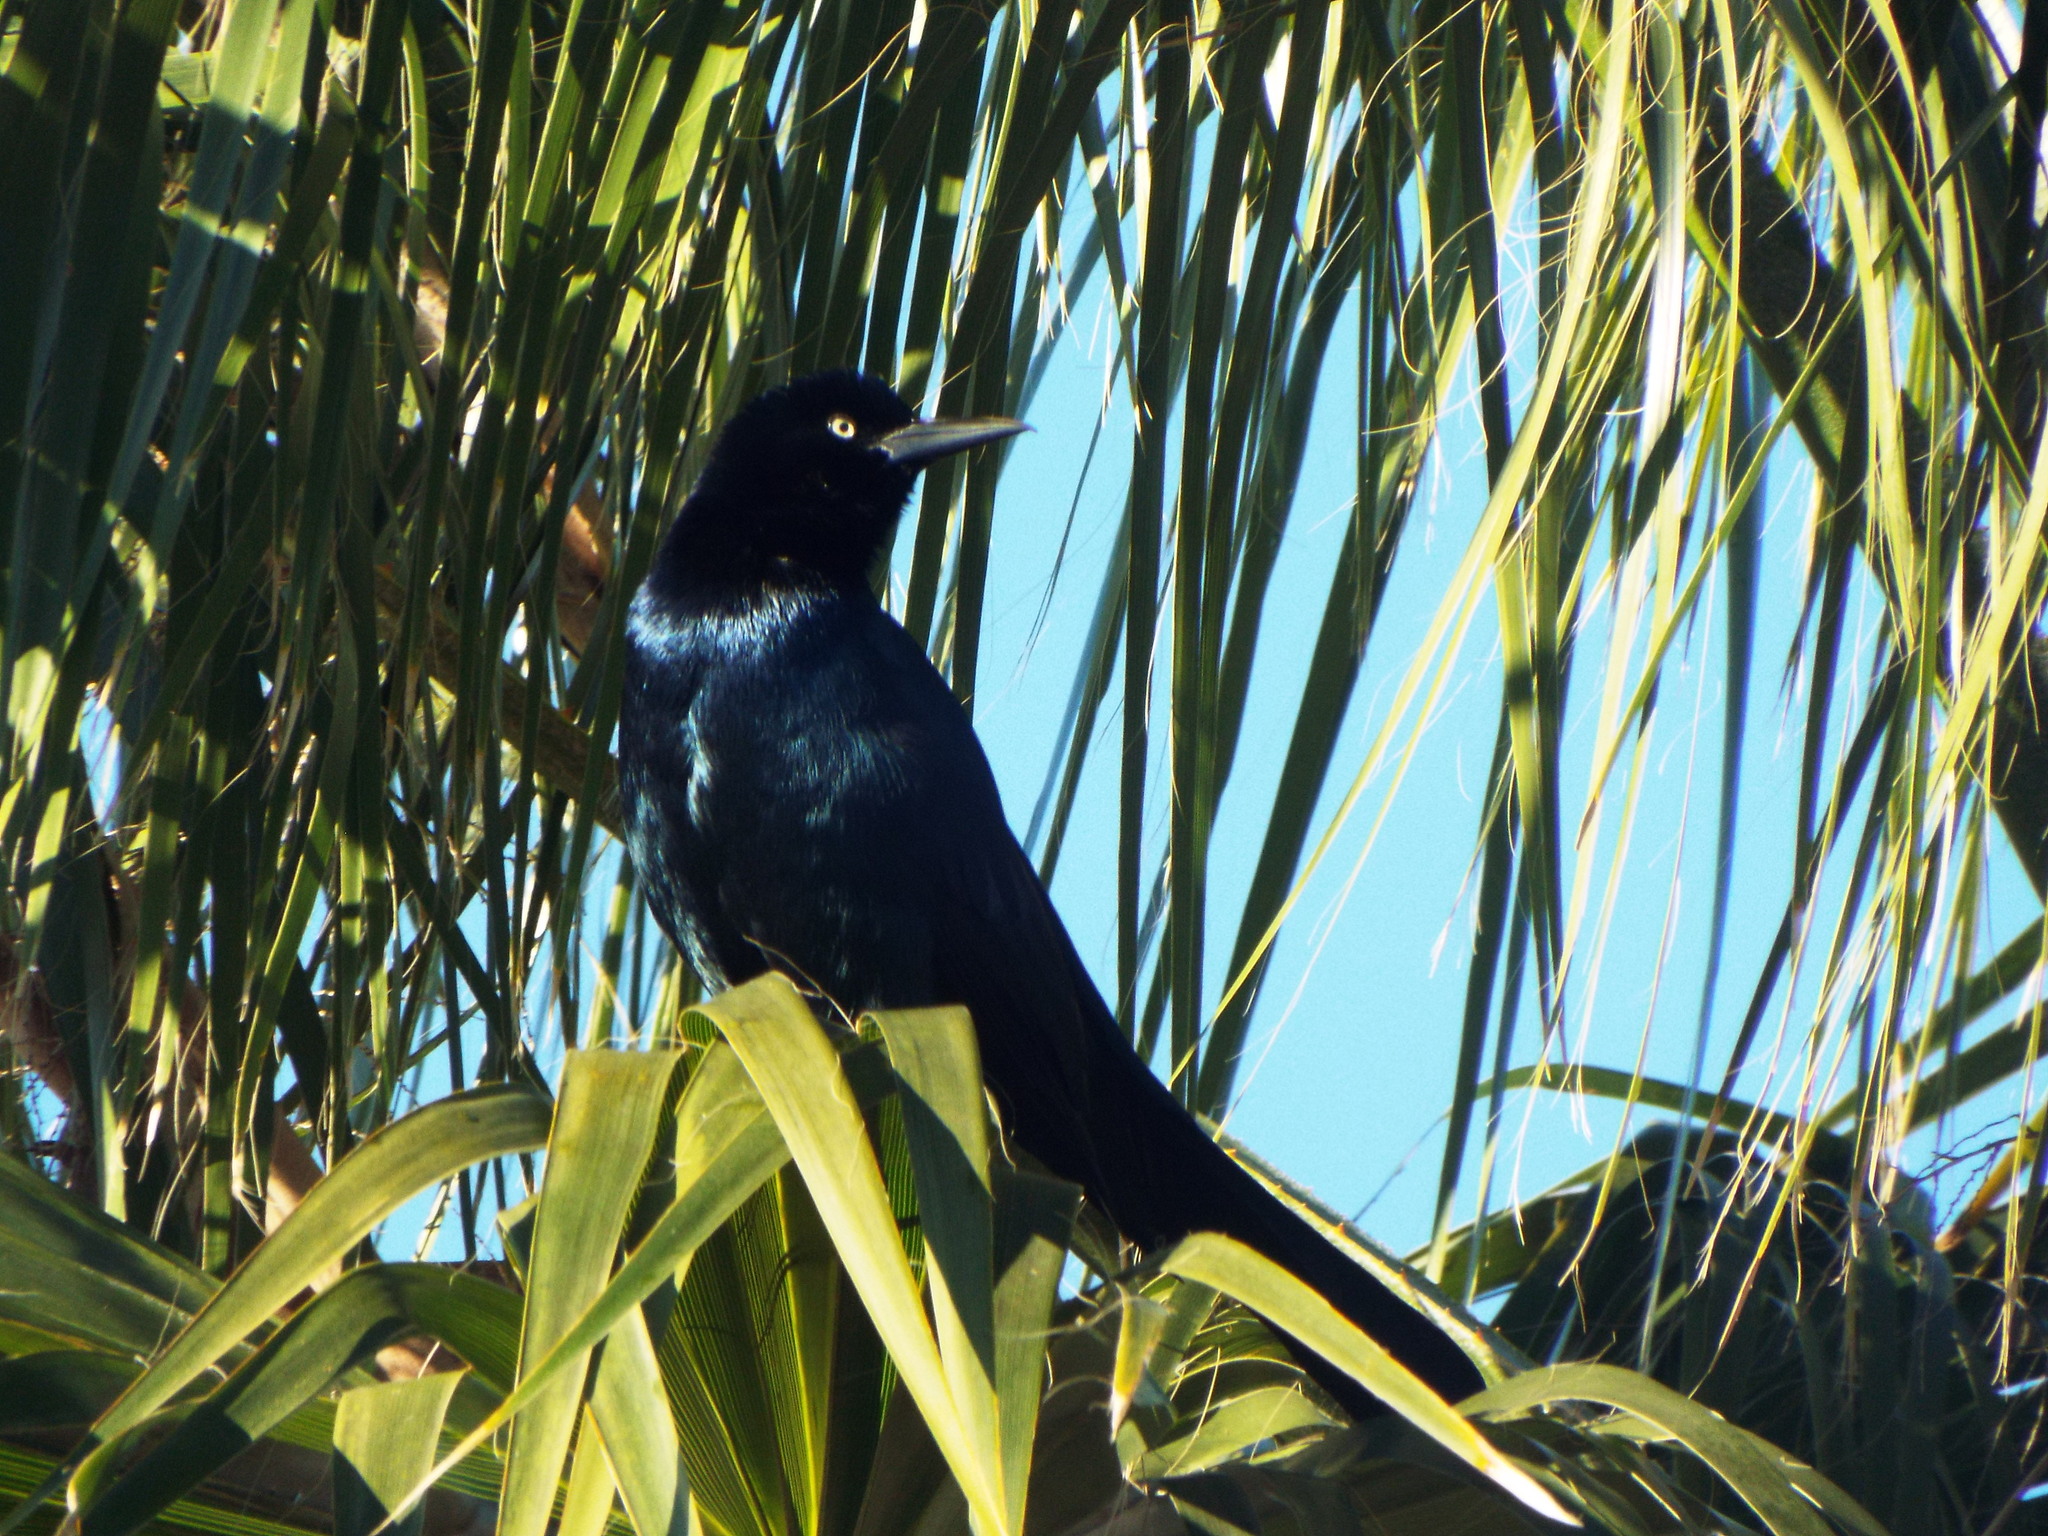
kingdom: Animalia
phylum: Chordata
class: Aves
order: Passeriformes
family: Icteridae
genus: Quiscalus
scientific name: Quiscalus major
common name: Boat-tailed grackle
